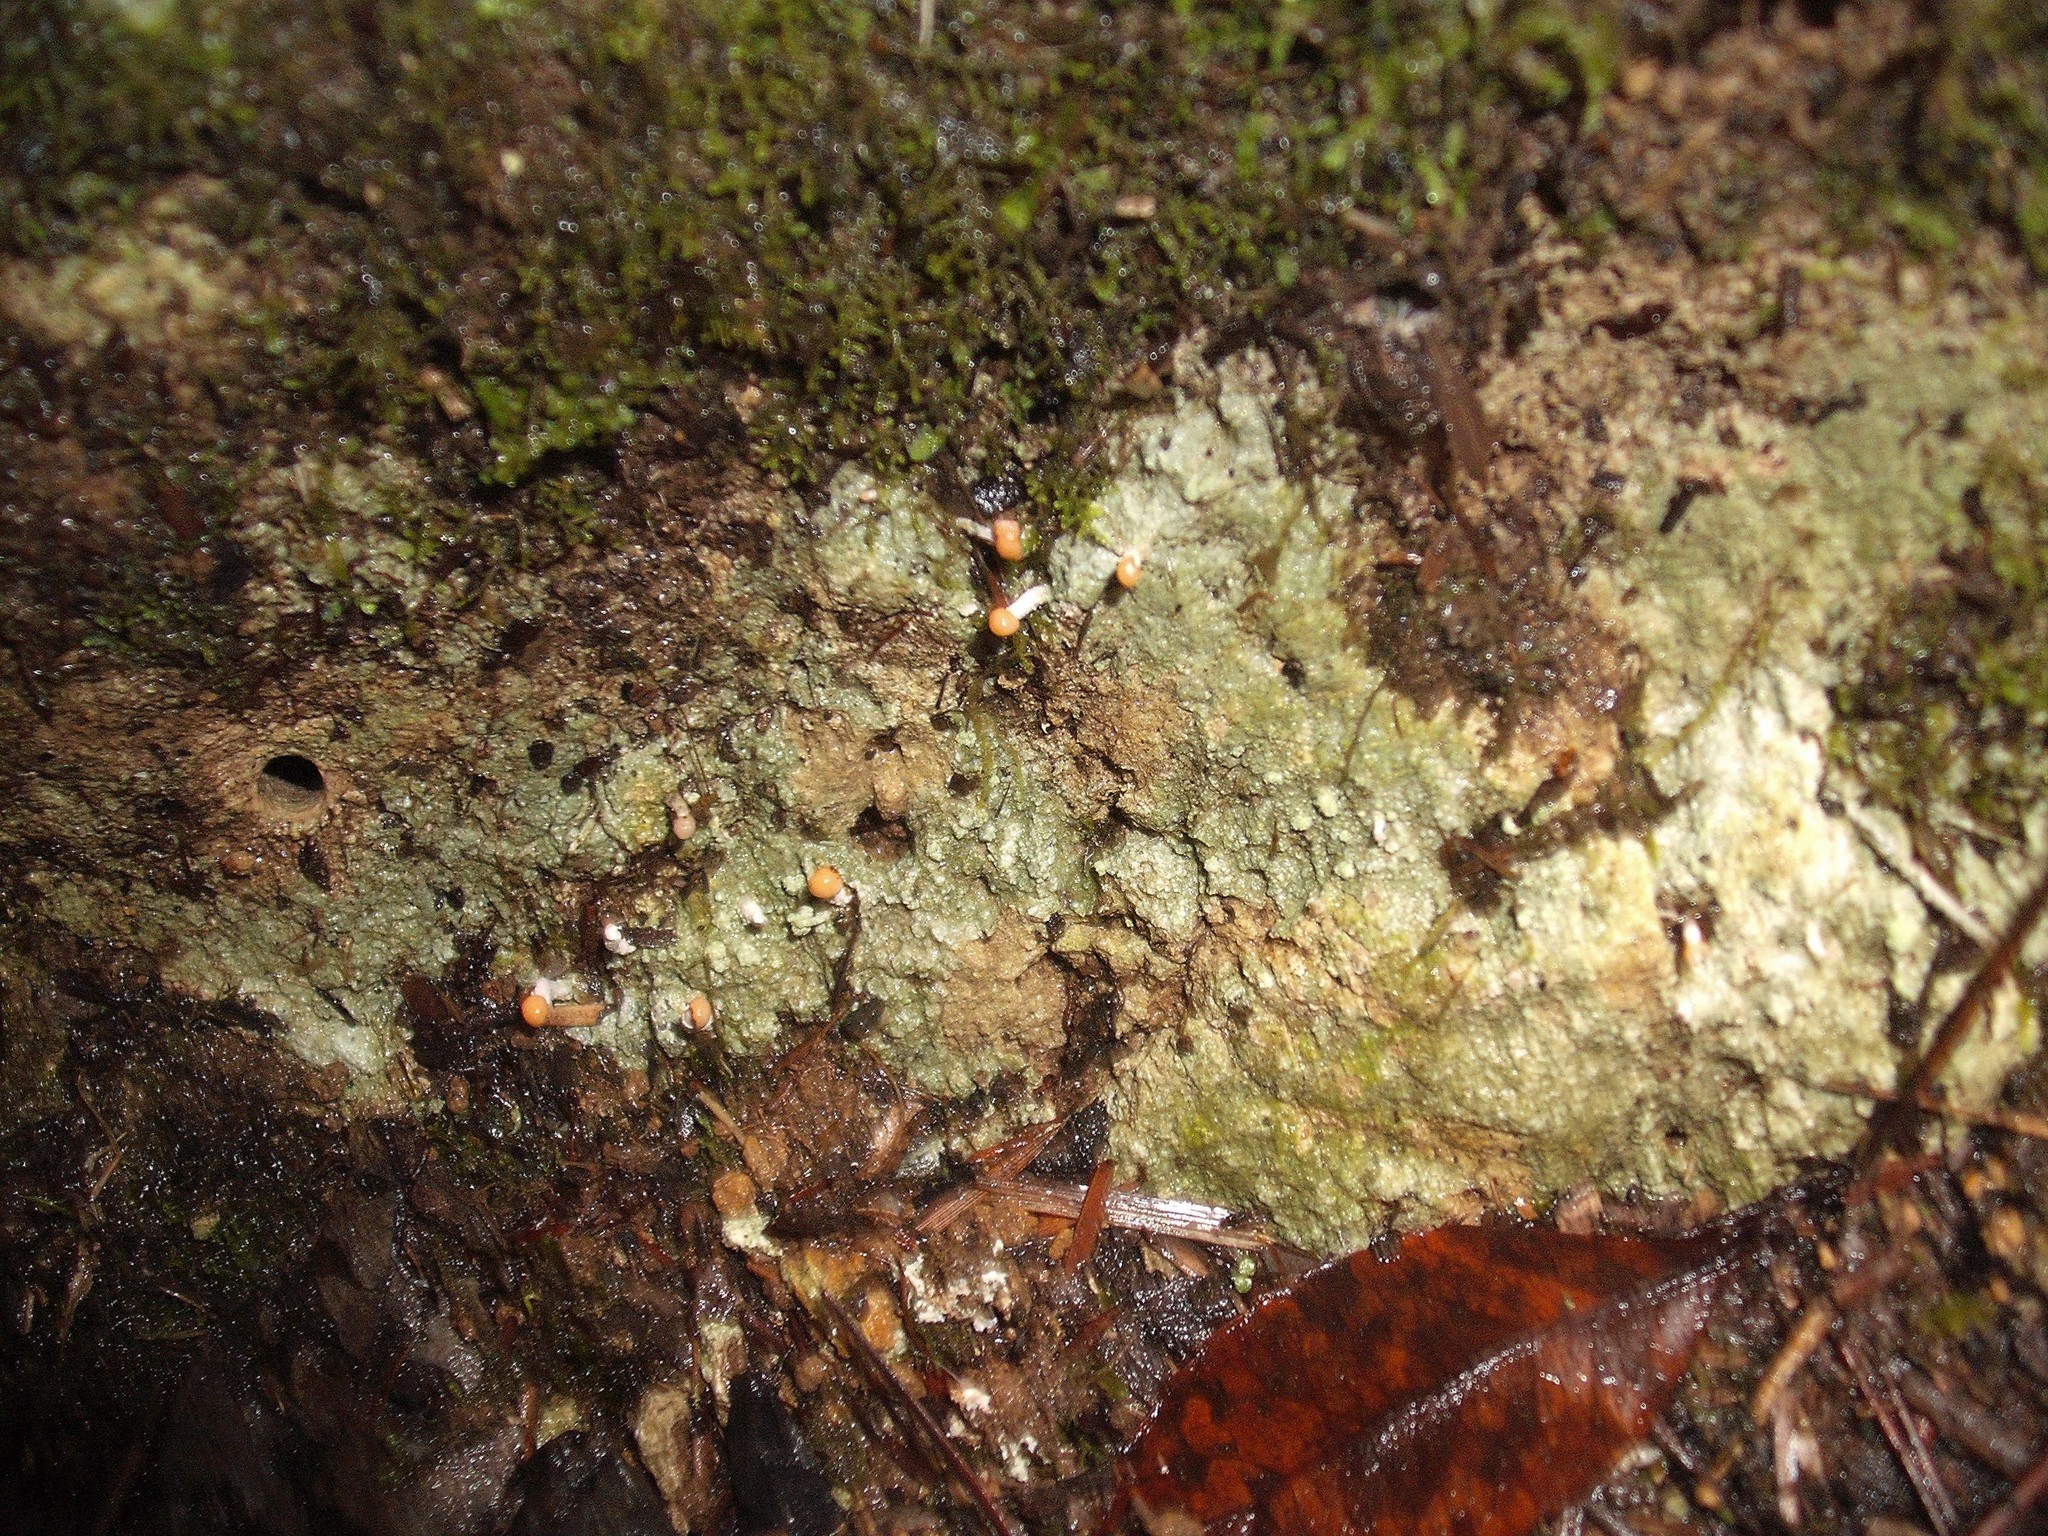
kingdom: Fungi
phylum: Ascomycota
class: Lecanoromycetes
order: Pertusariales
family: Icmadophilaceae
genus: Dibaeis
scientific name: Dibaeis arcuata
